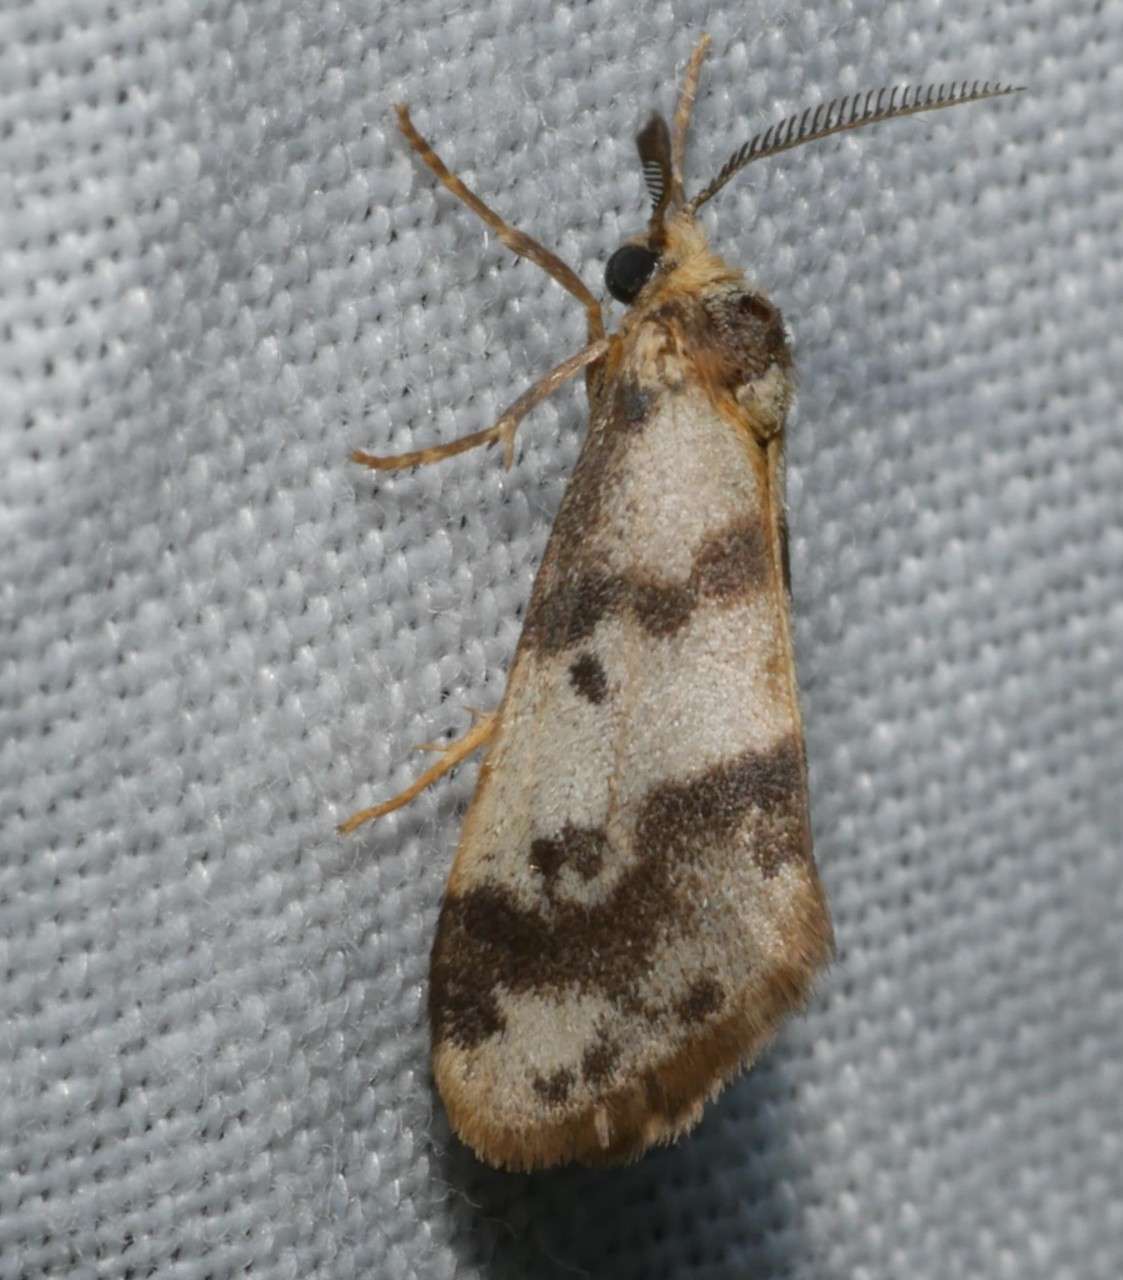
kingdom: Animalia
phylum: Arthropoda
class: Insecta
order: Lepidoptera
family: Erebidae
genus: Anestia
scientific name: Anestia
